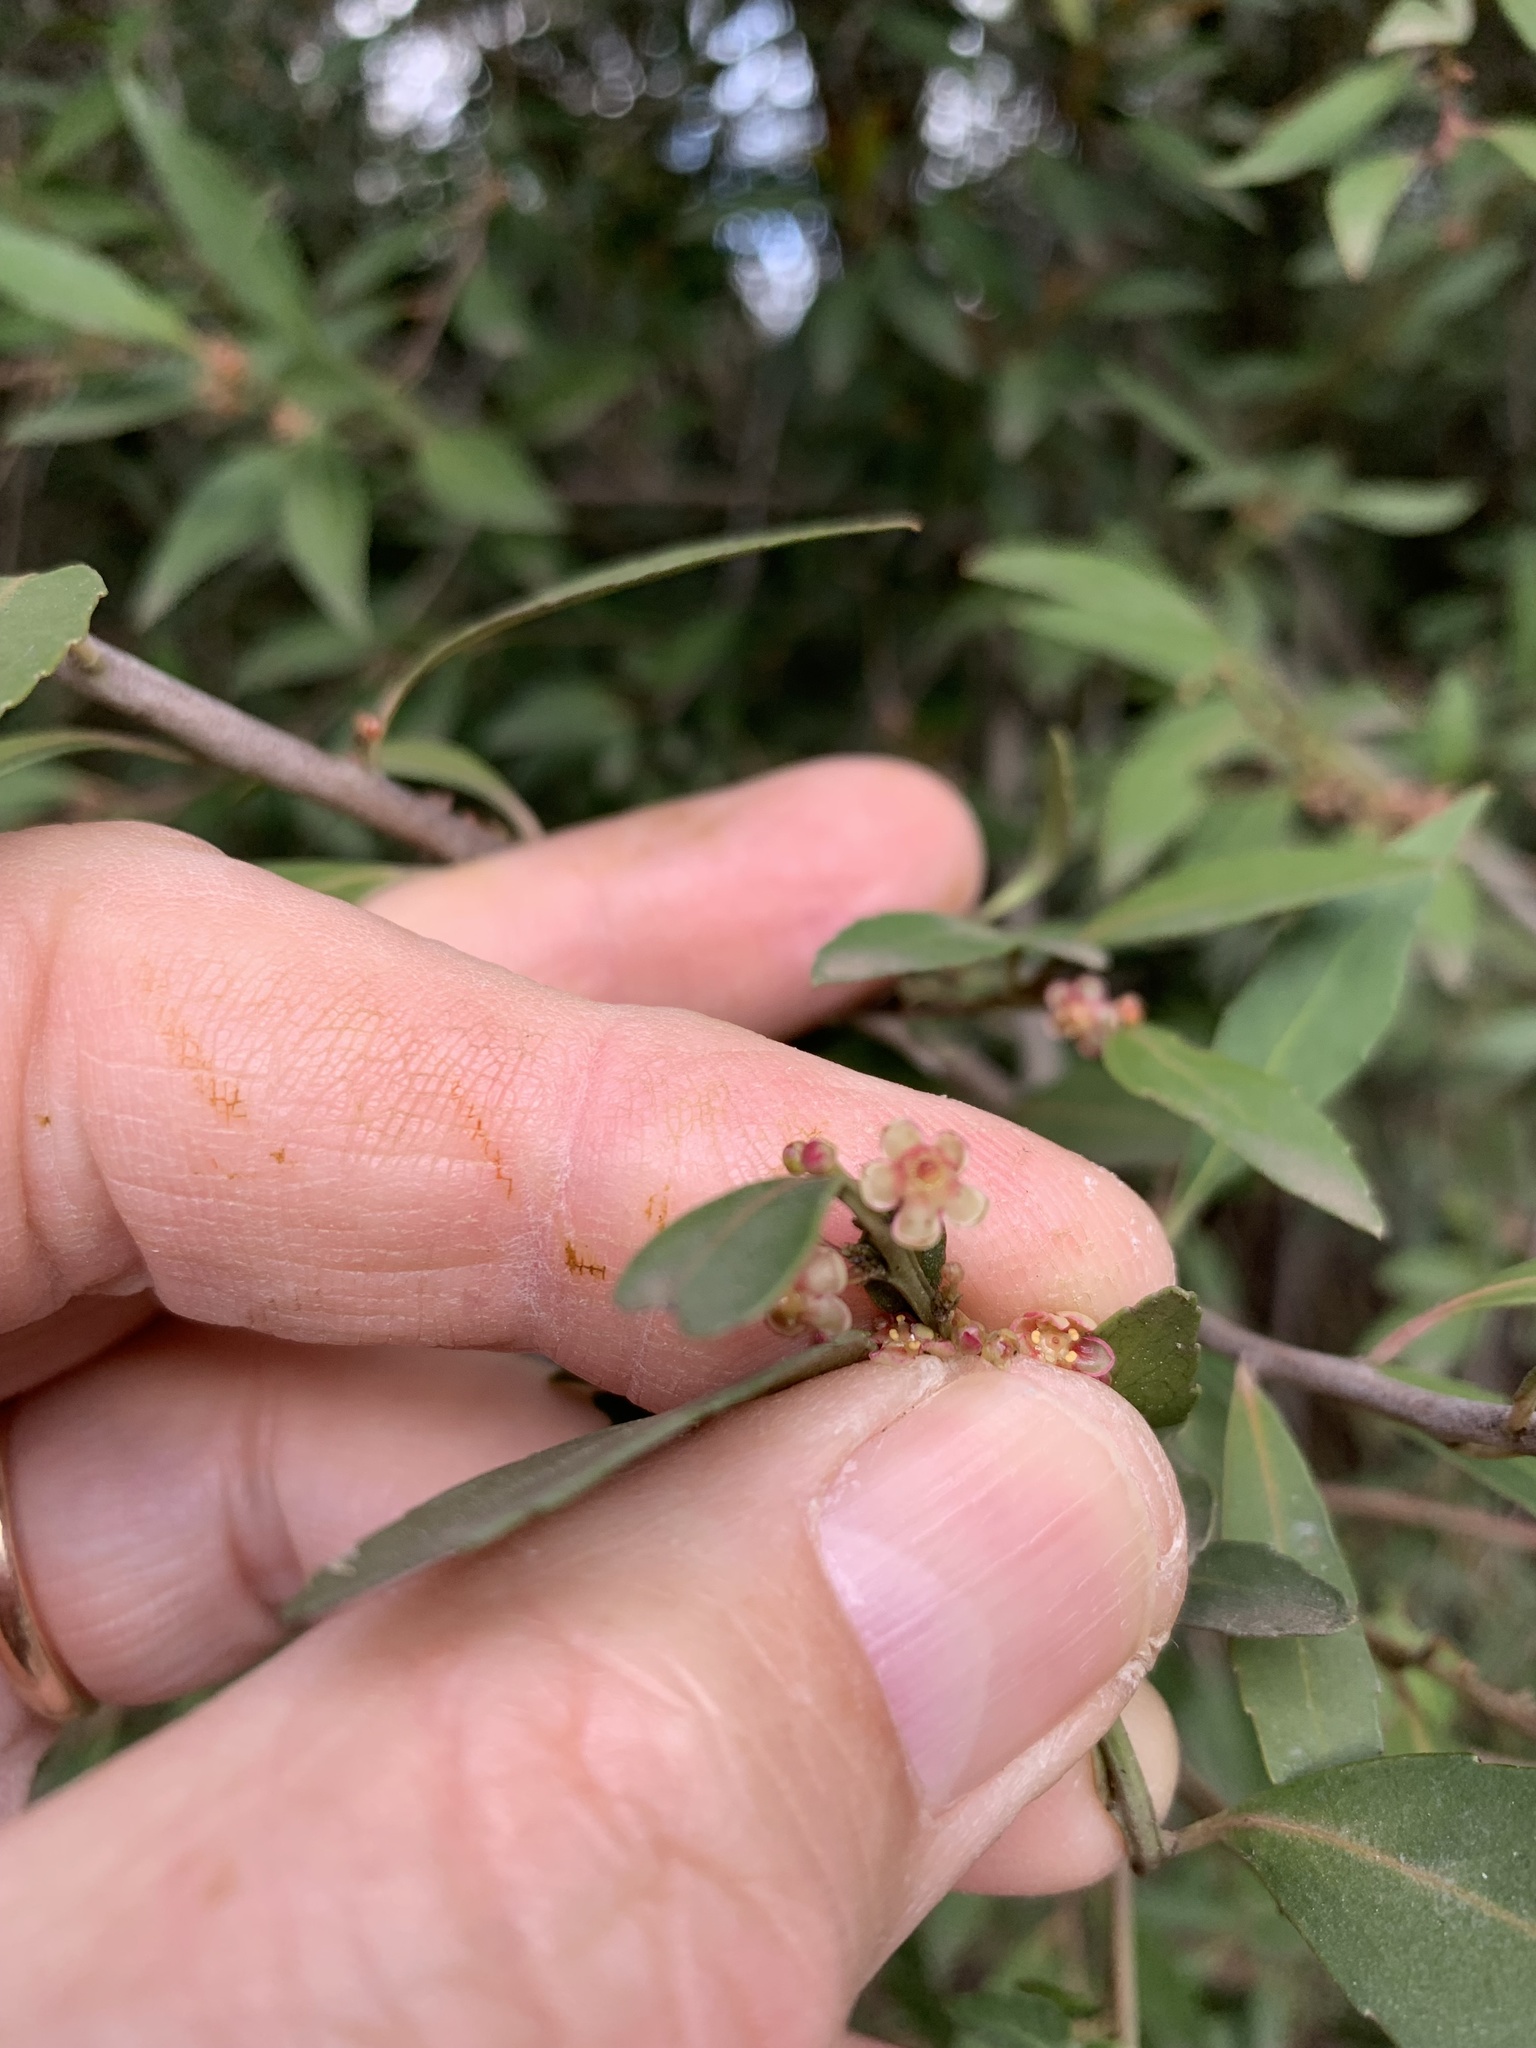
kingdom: Plantae
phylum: Tracheophyta
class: Magnoliopsida
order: Celastrales
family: Celastraceae
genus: Gymnosporia
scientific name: Gymnosporia acuminata
